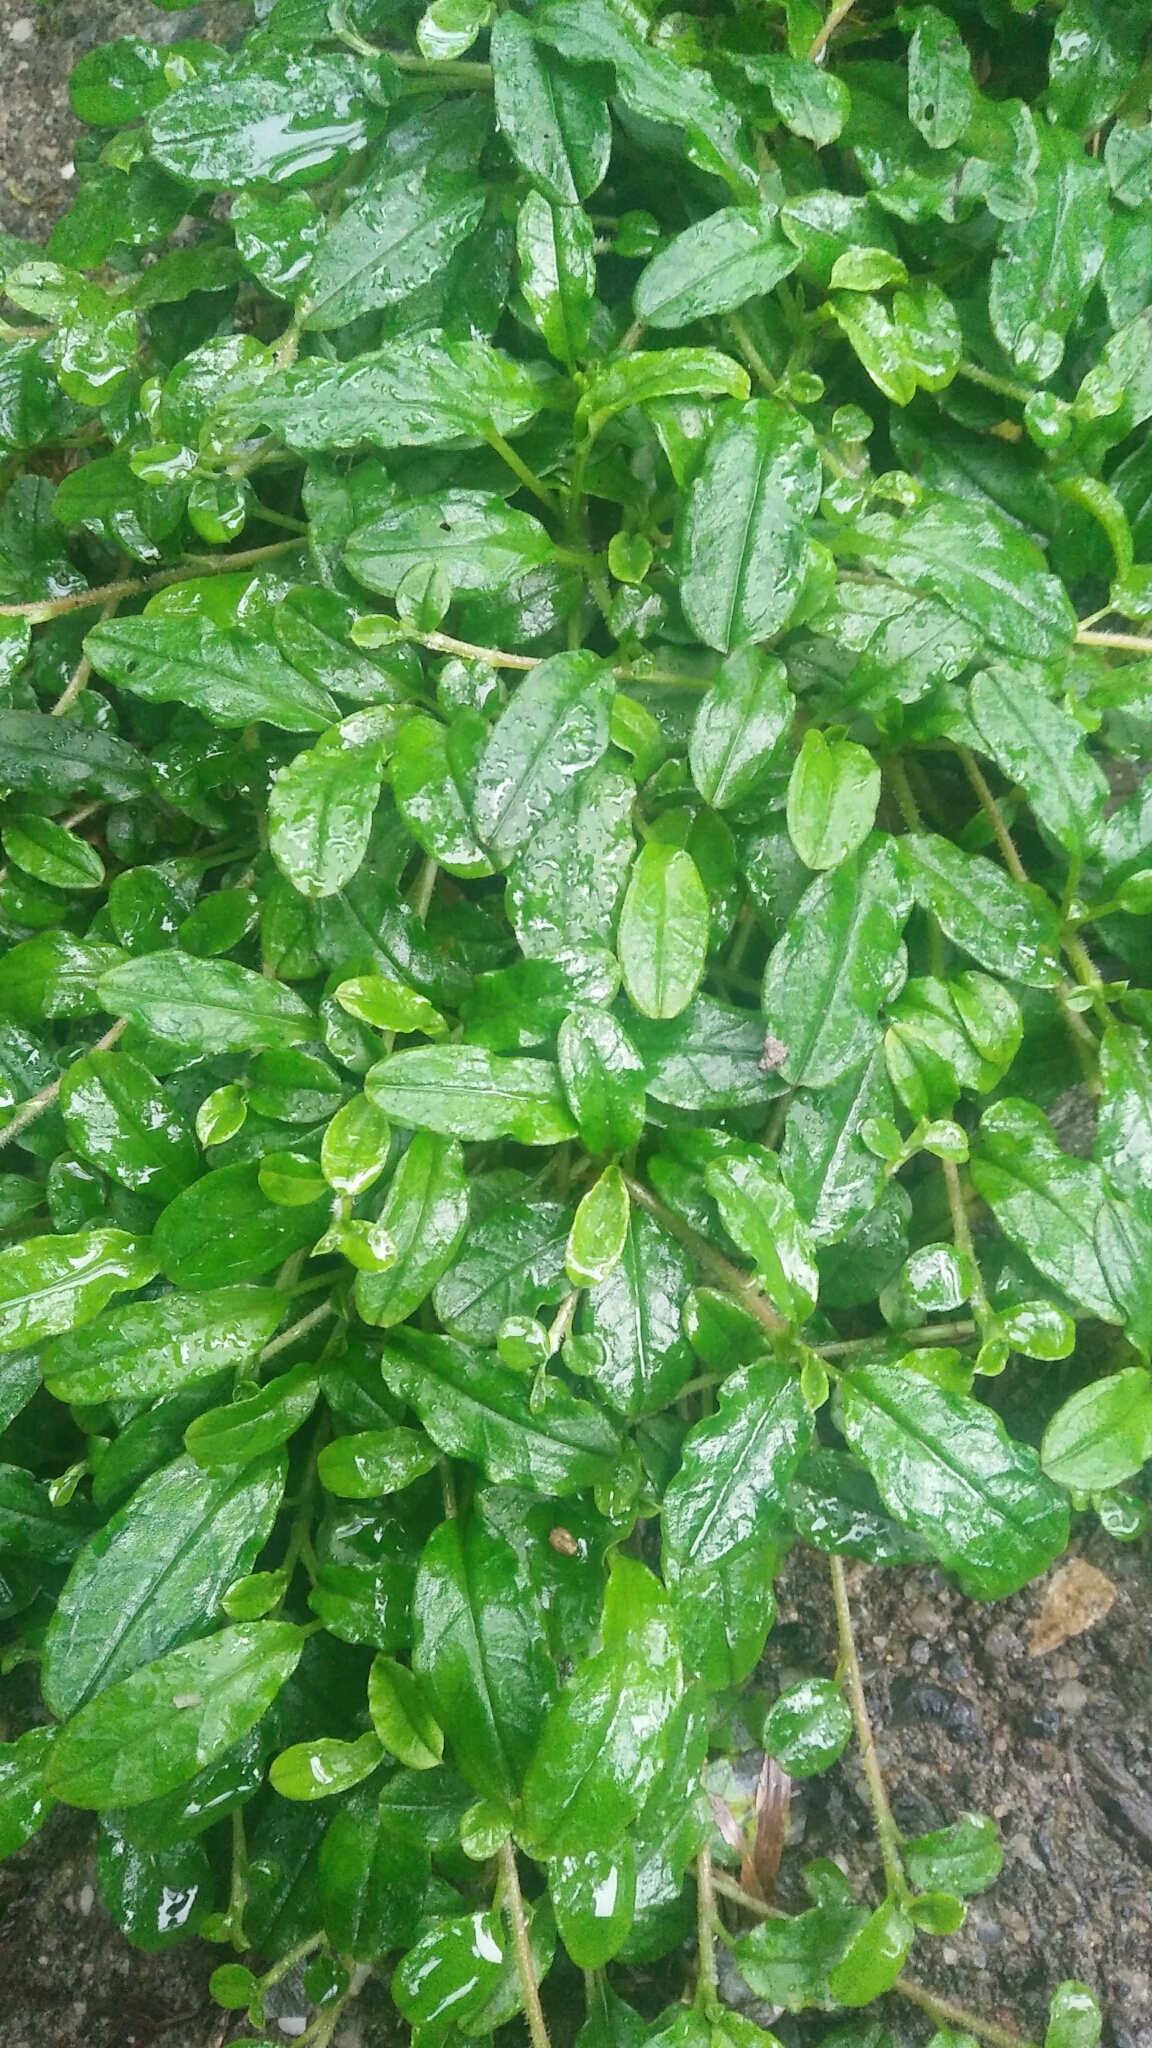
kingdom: Plantae
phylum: Tracheophyta
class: Magnoliopsida
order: Boraginales
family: Boraginaceae
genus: Trigonotis
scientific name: Trigonotis formosana
